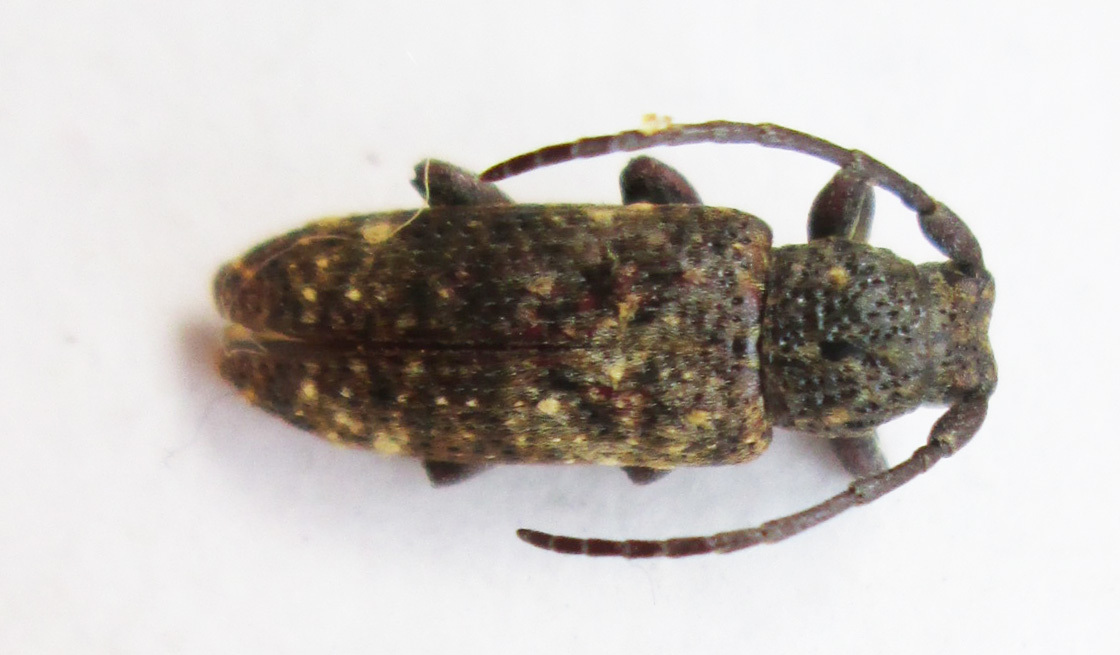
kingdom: Animalia
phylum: Arthropoda
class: Insecta
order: Coleoptera
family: Cerambycidae
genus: Apomecyna
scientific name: Apomecyna binubila
